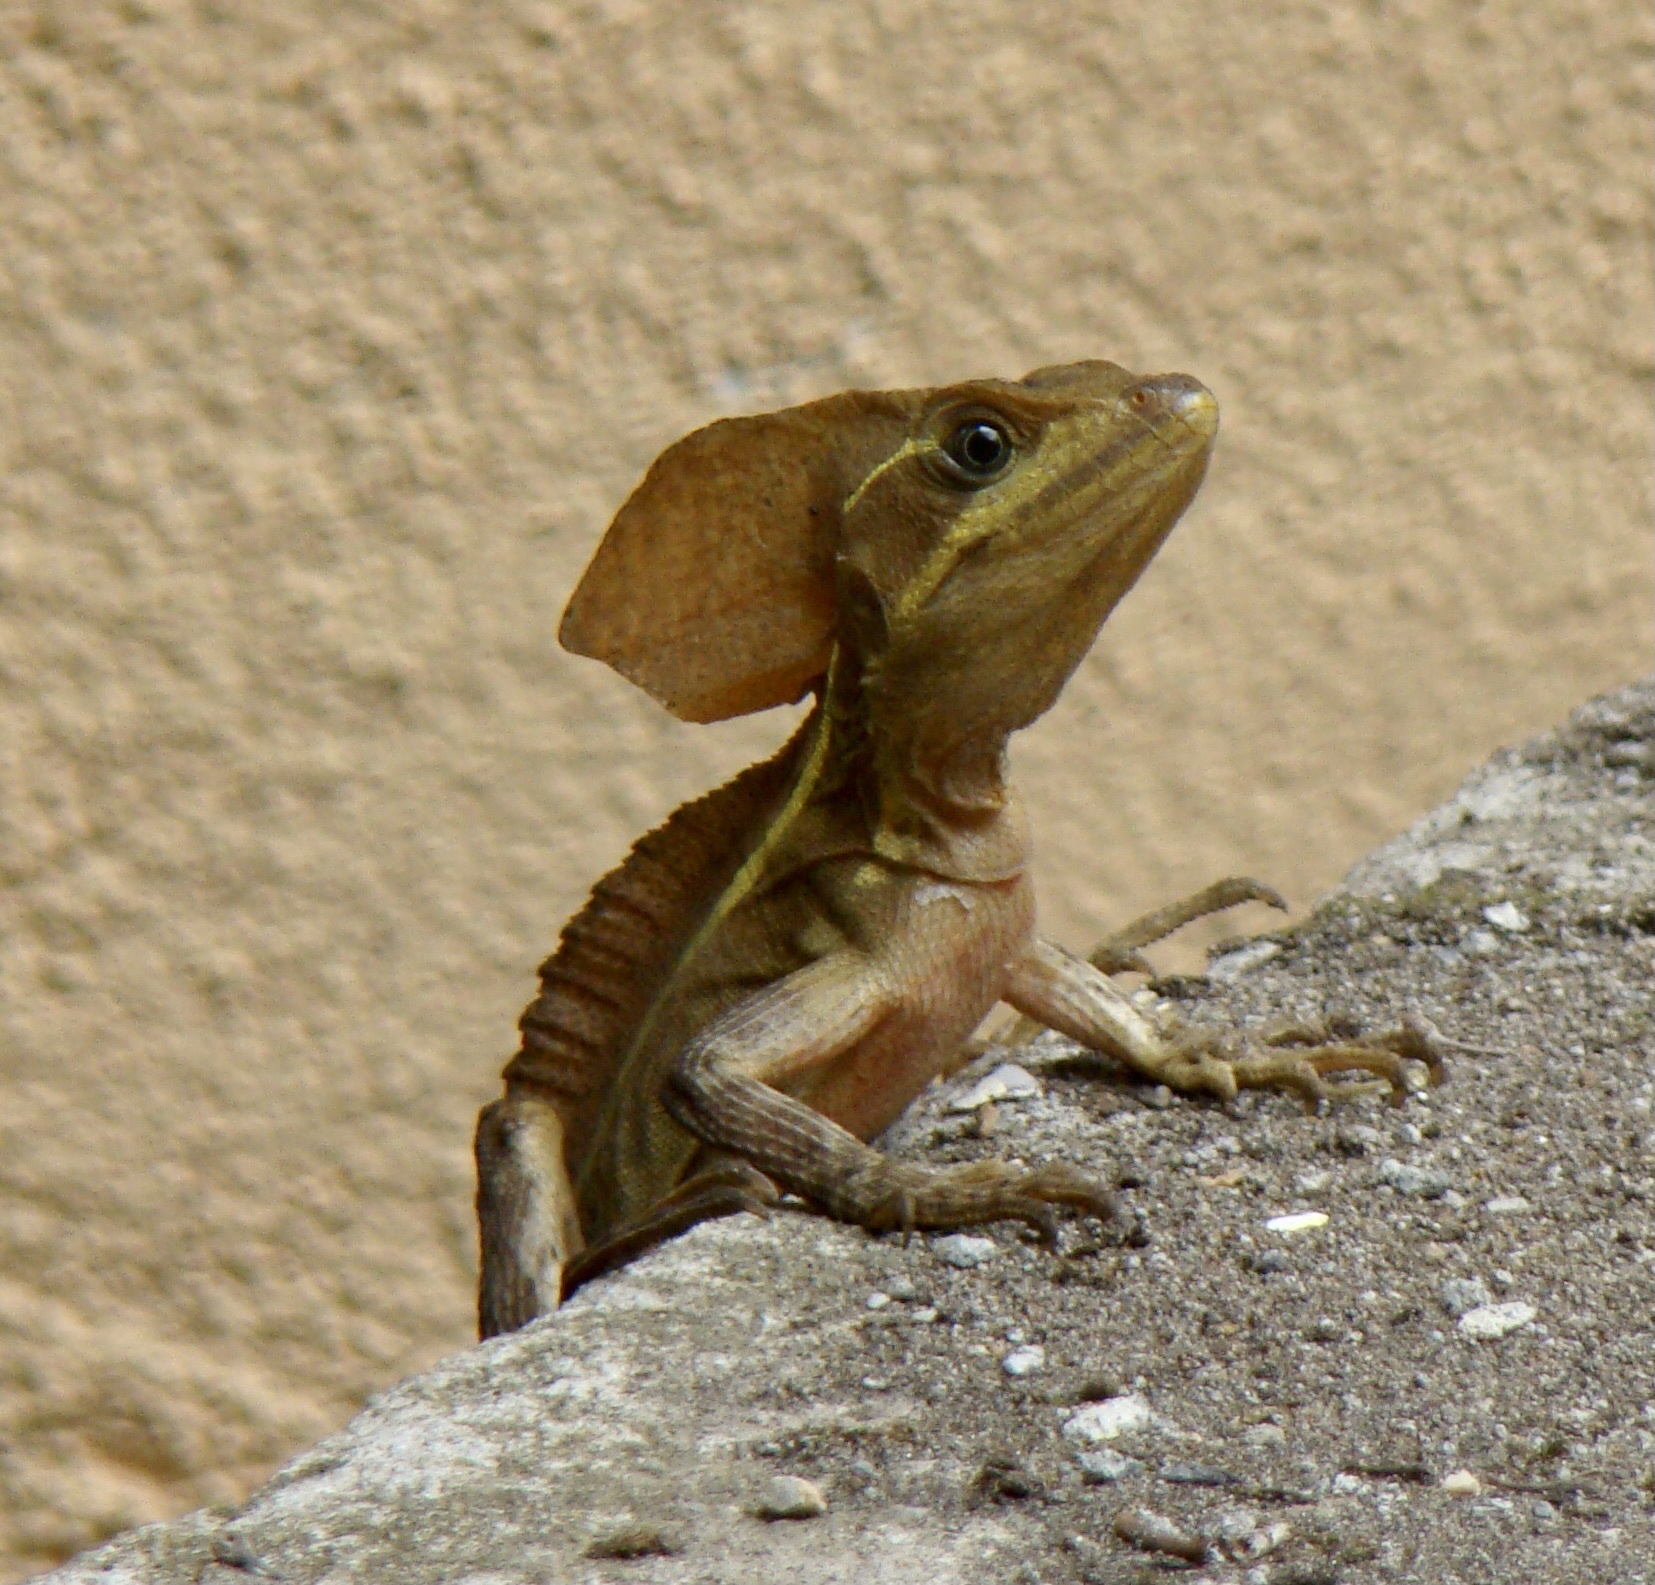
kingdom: Animalia
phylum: Chordata
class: Squamata
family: Corytophanidae
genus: Basiliscus
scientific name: Basiliscus vittatus
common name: Brown basilisk
